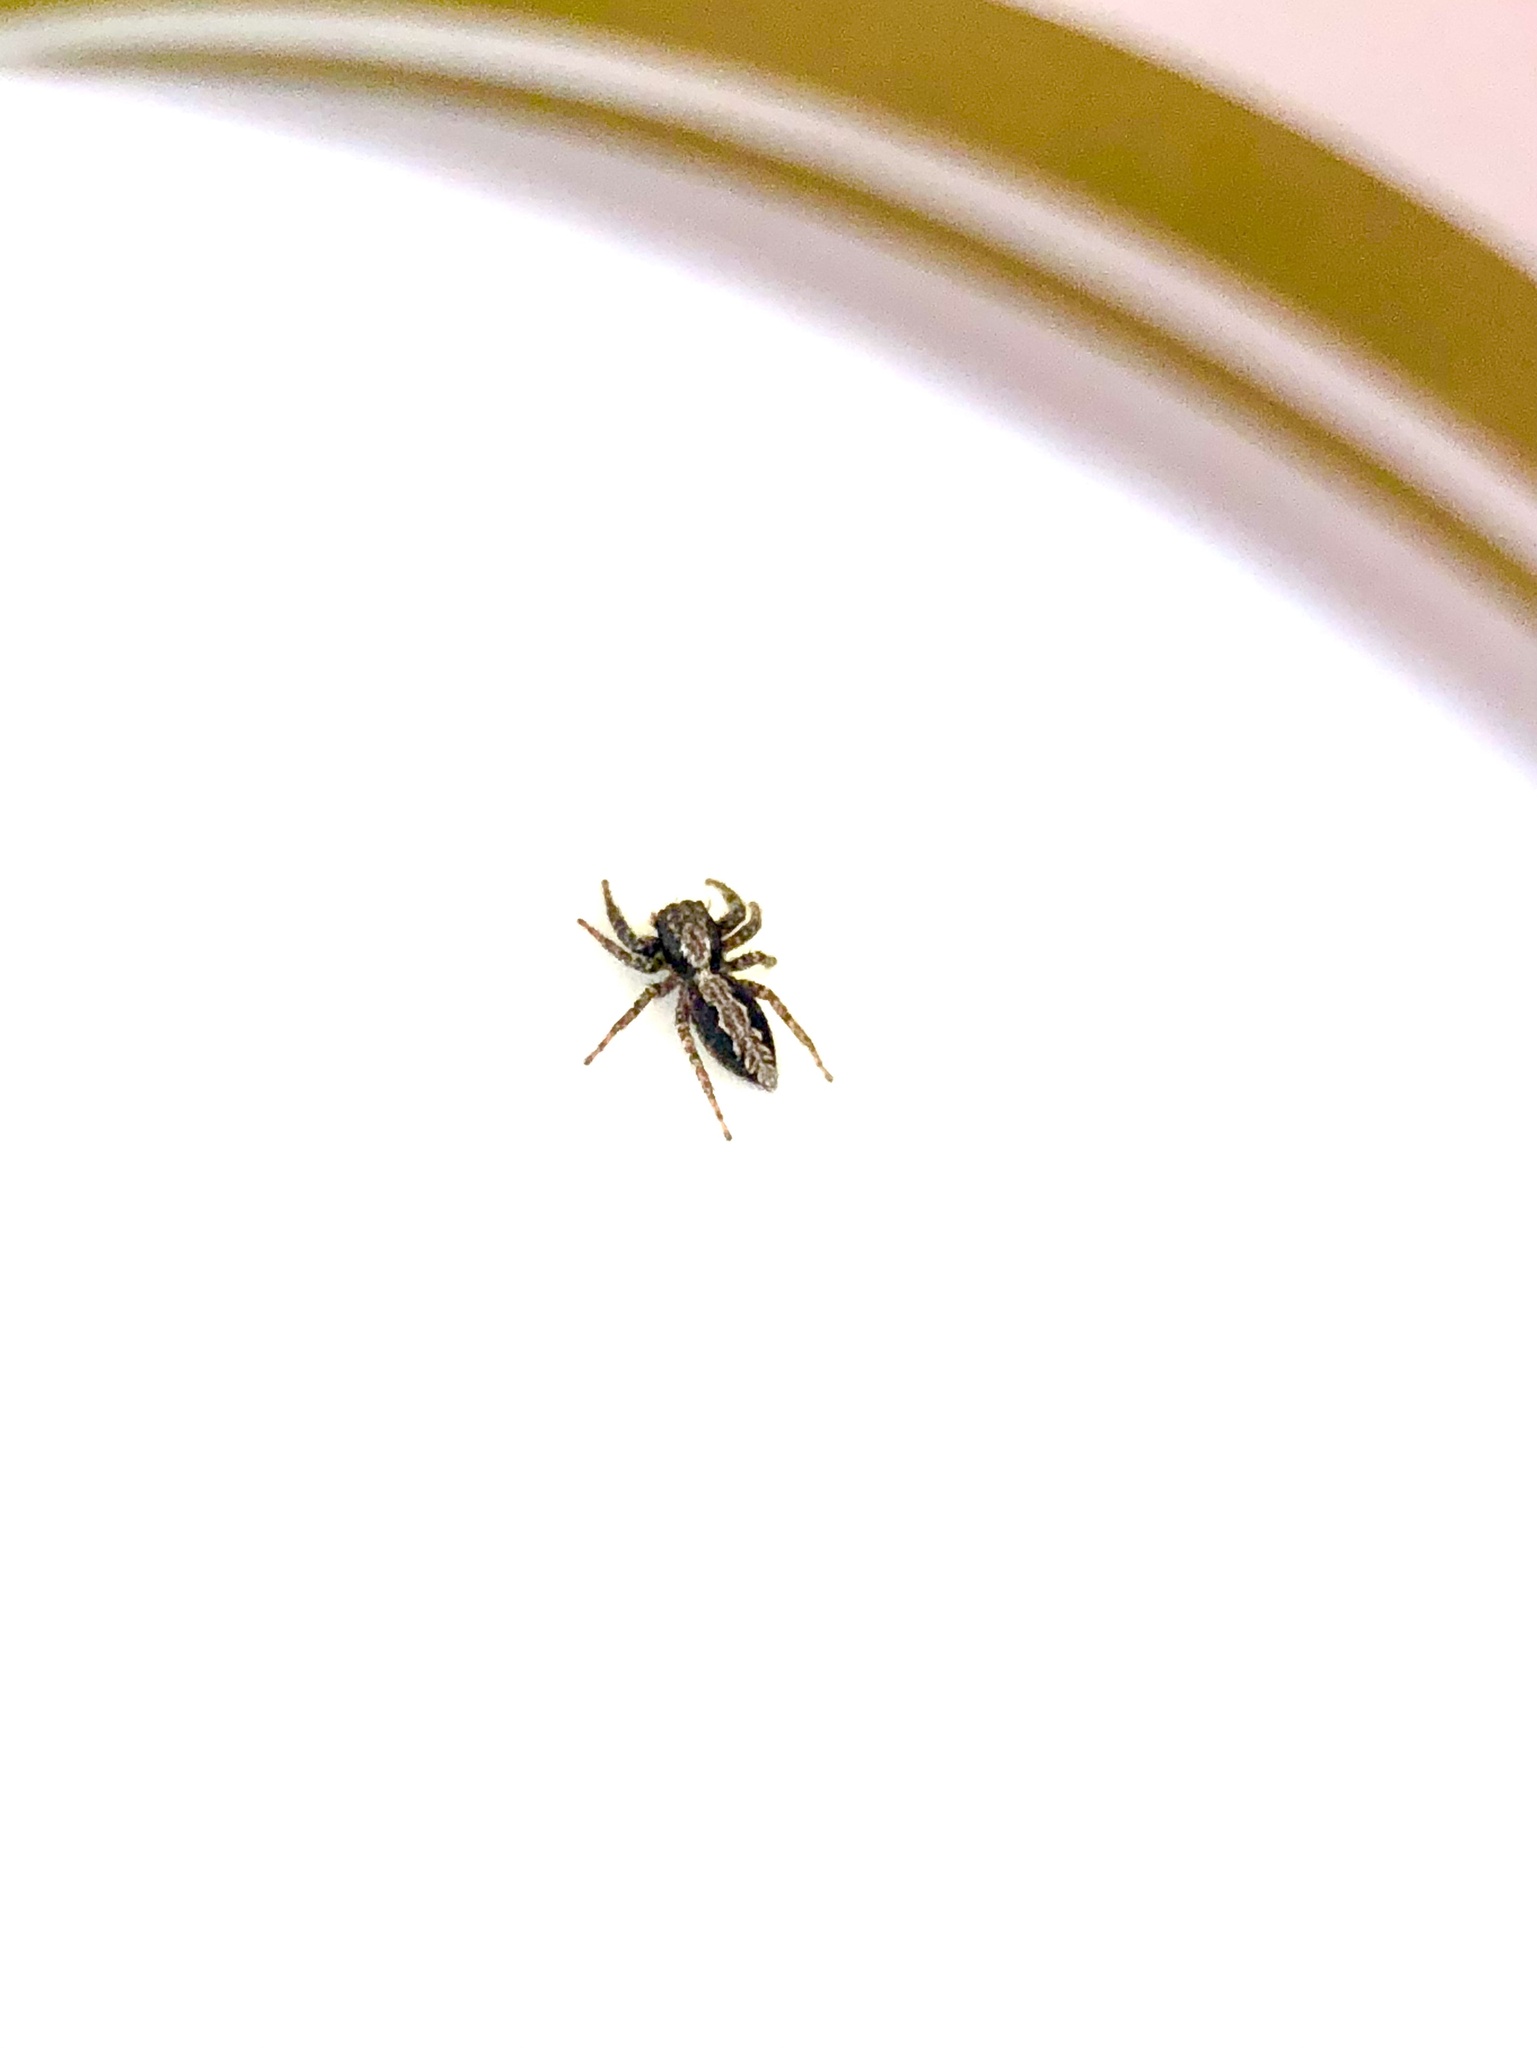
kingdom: Animalia
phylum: Arthropoda
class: Arachnida
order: Araneae
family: Salticidae
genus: Platycryptus
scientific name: Platycryptus californicus
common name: Jumping spiders
